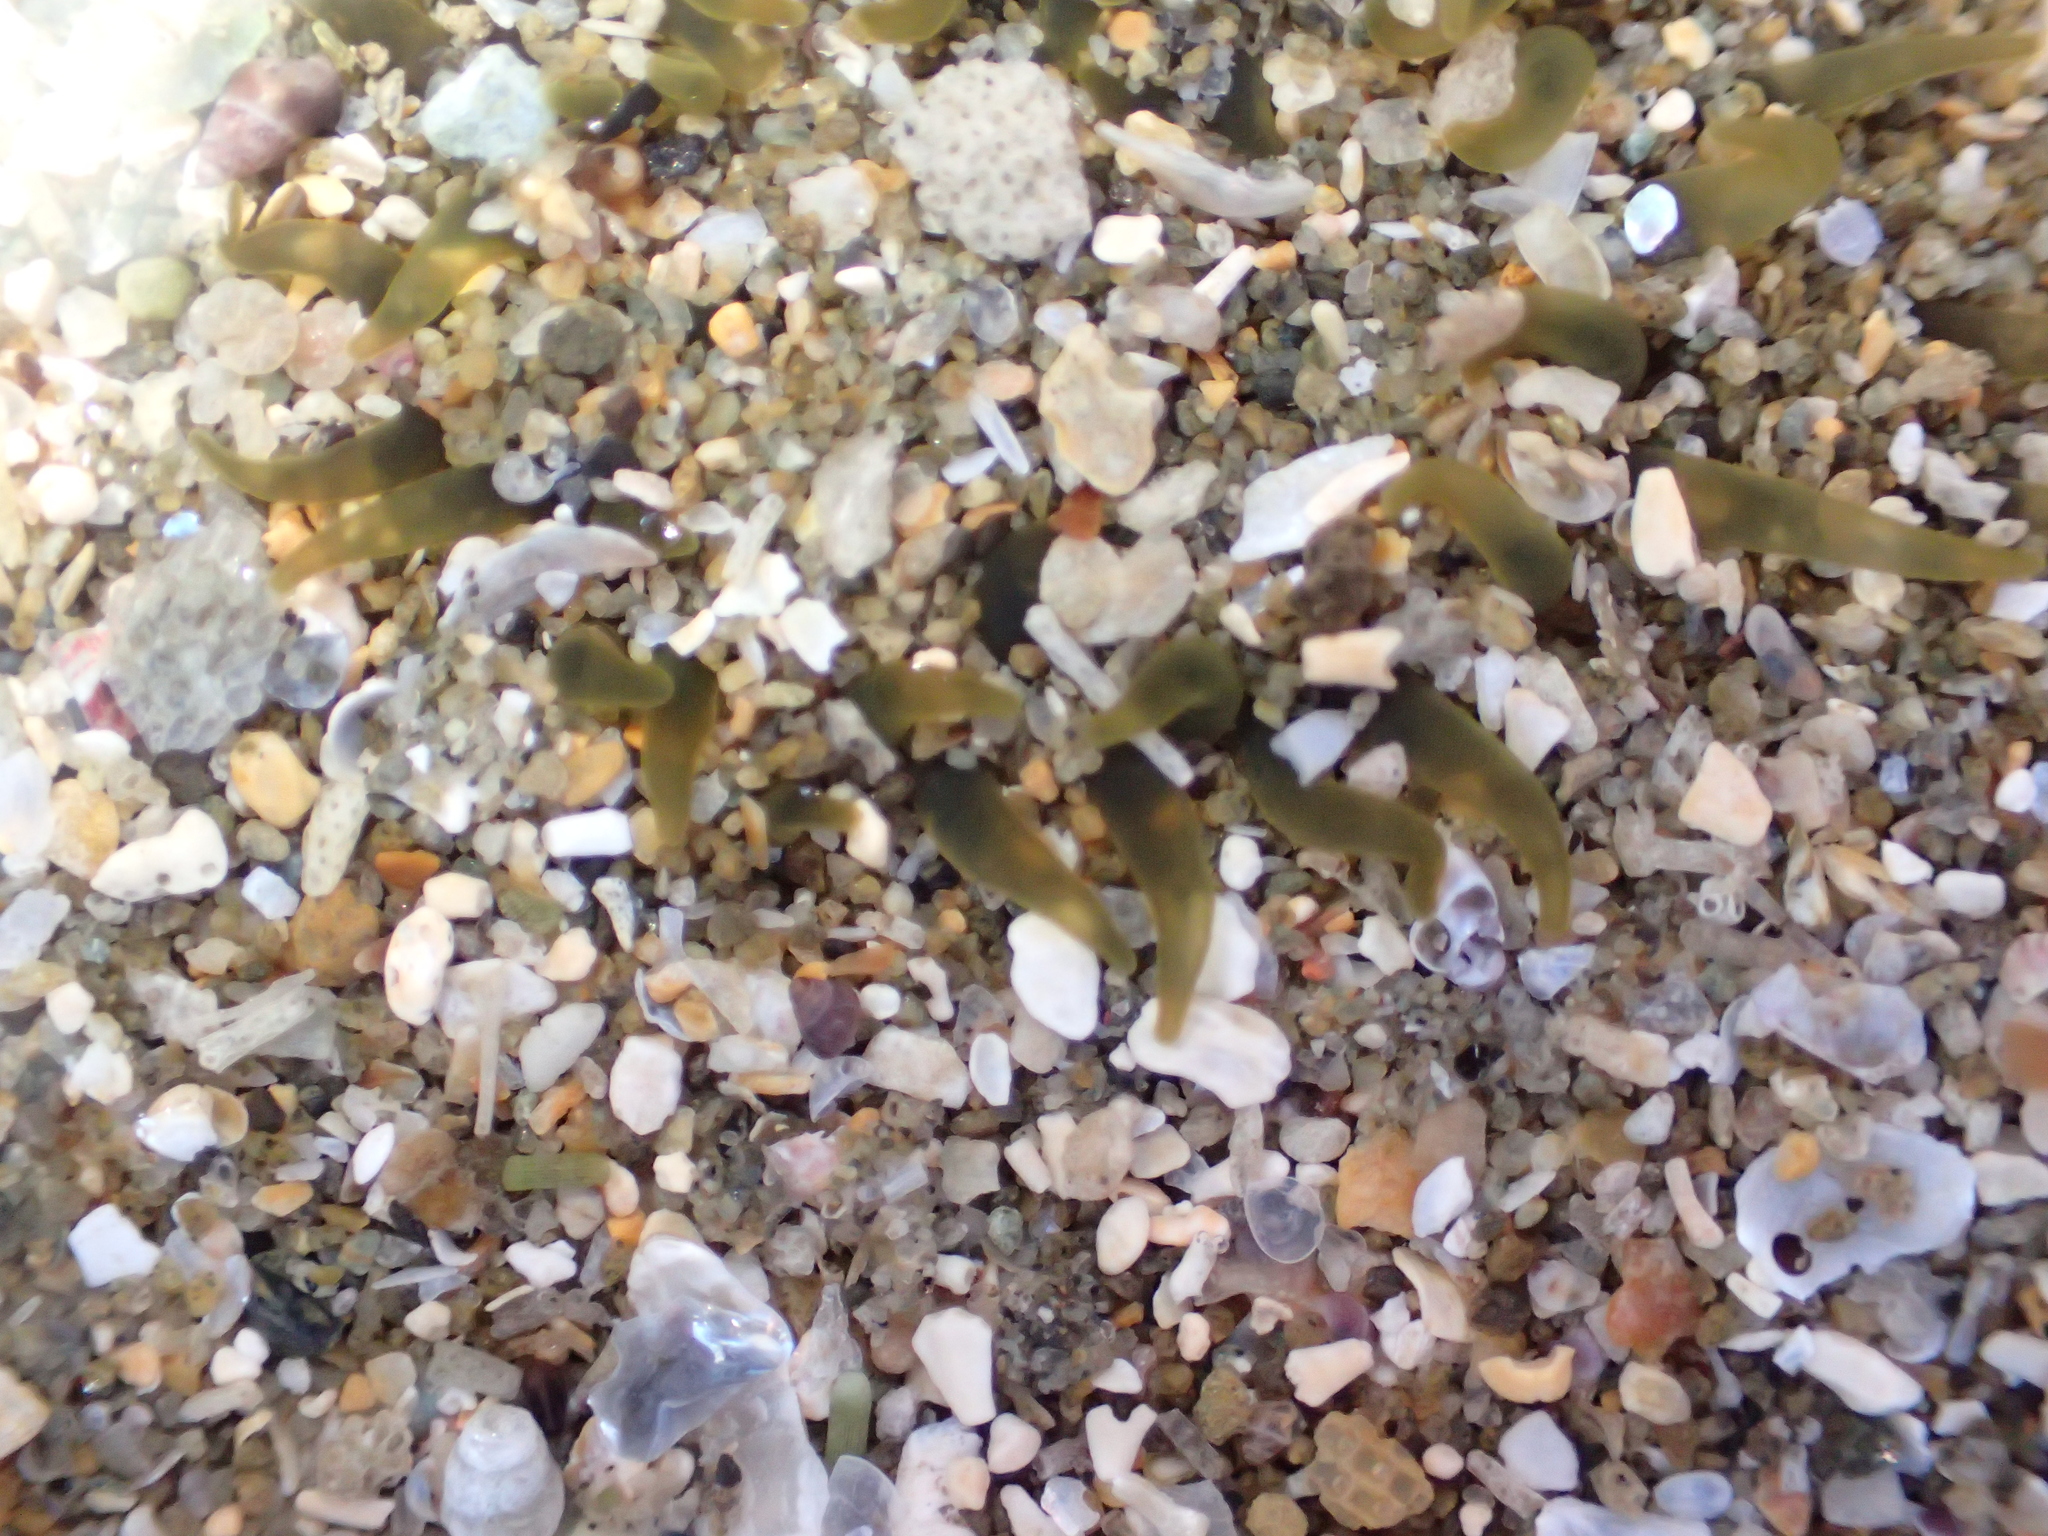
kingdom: Animalia
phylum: Cnidaria
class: Anthozoa
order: Actiniaria
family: Actiniidae
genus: Isactinia
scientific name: Isactinia olivacea
